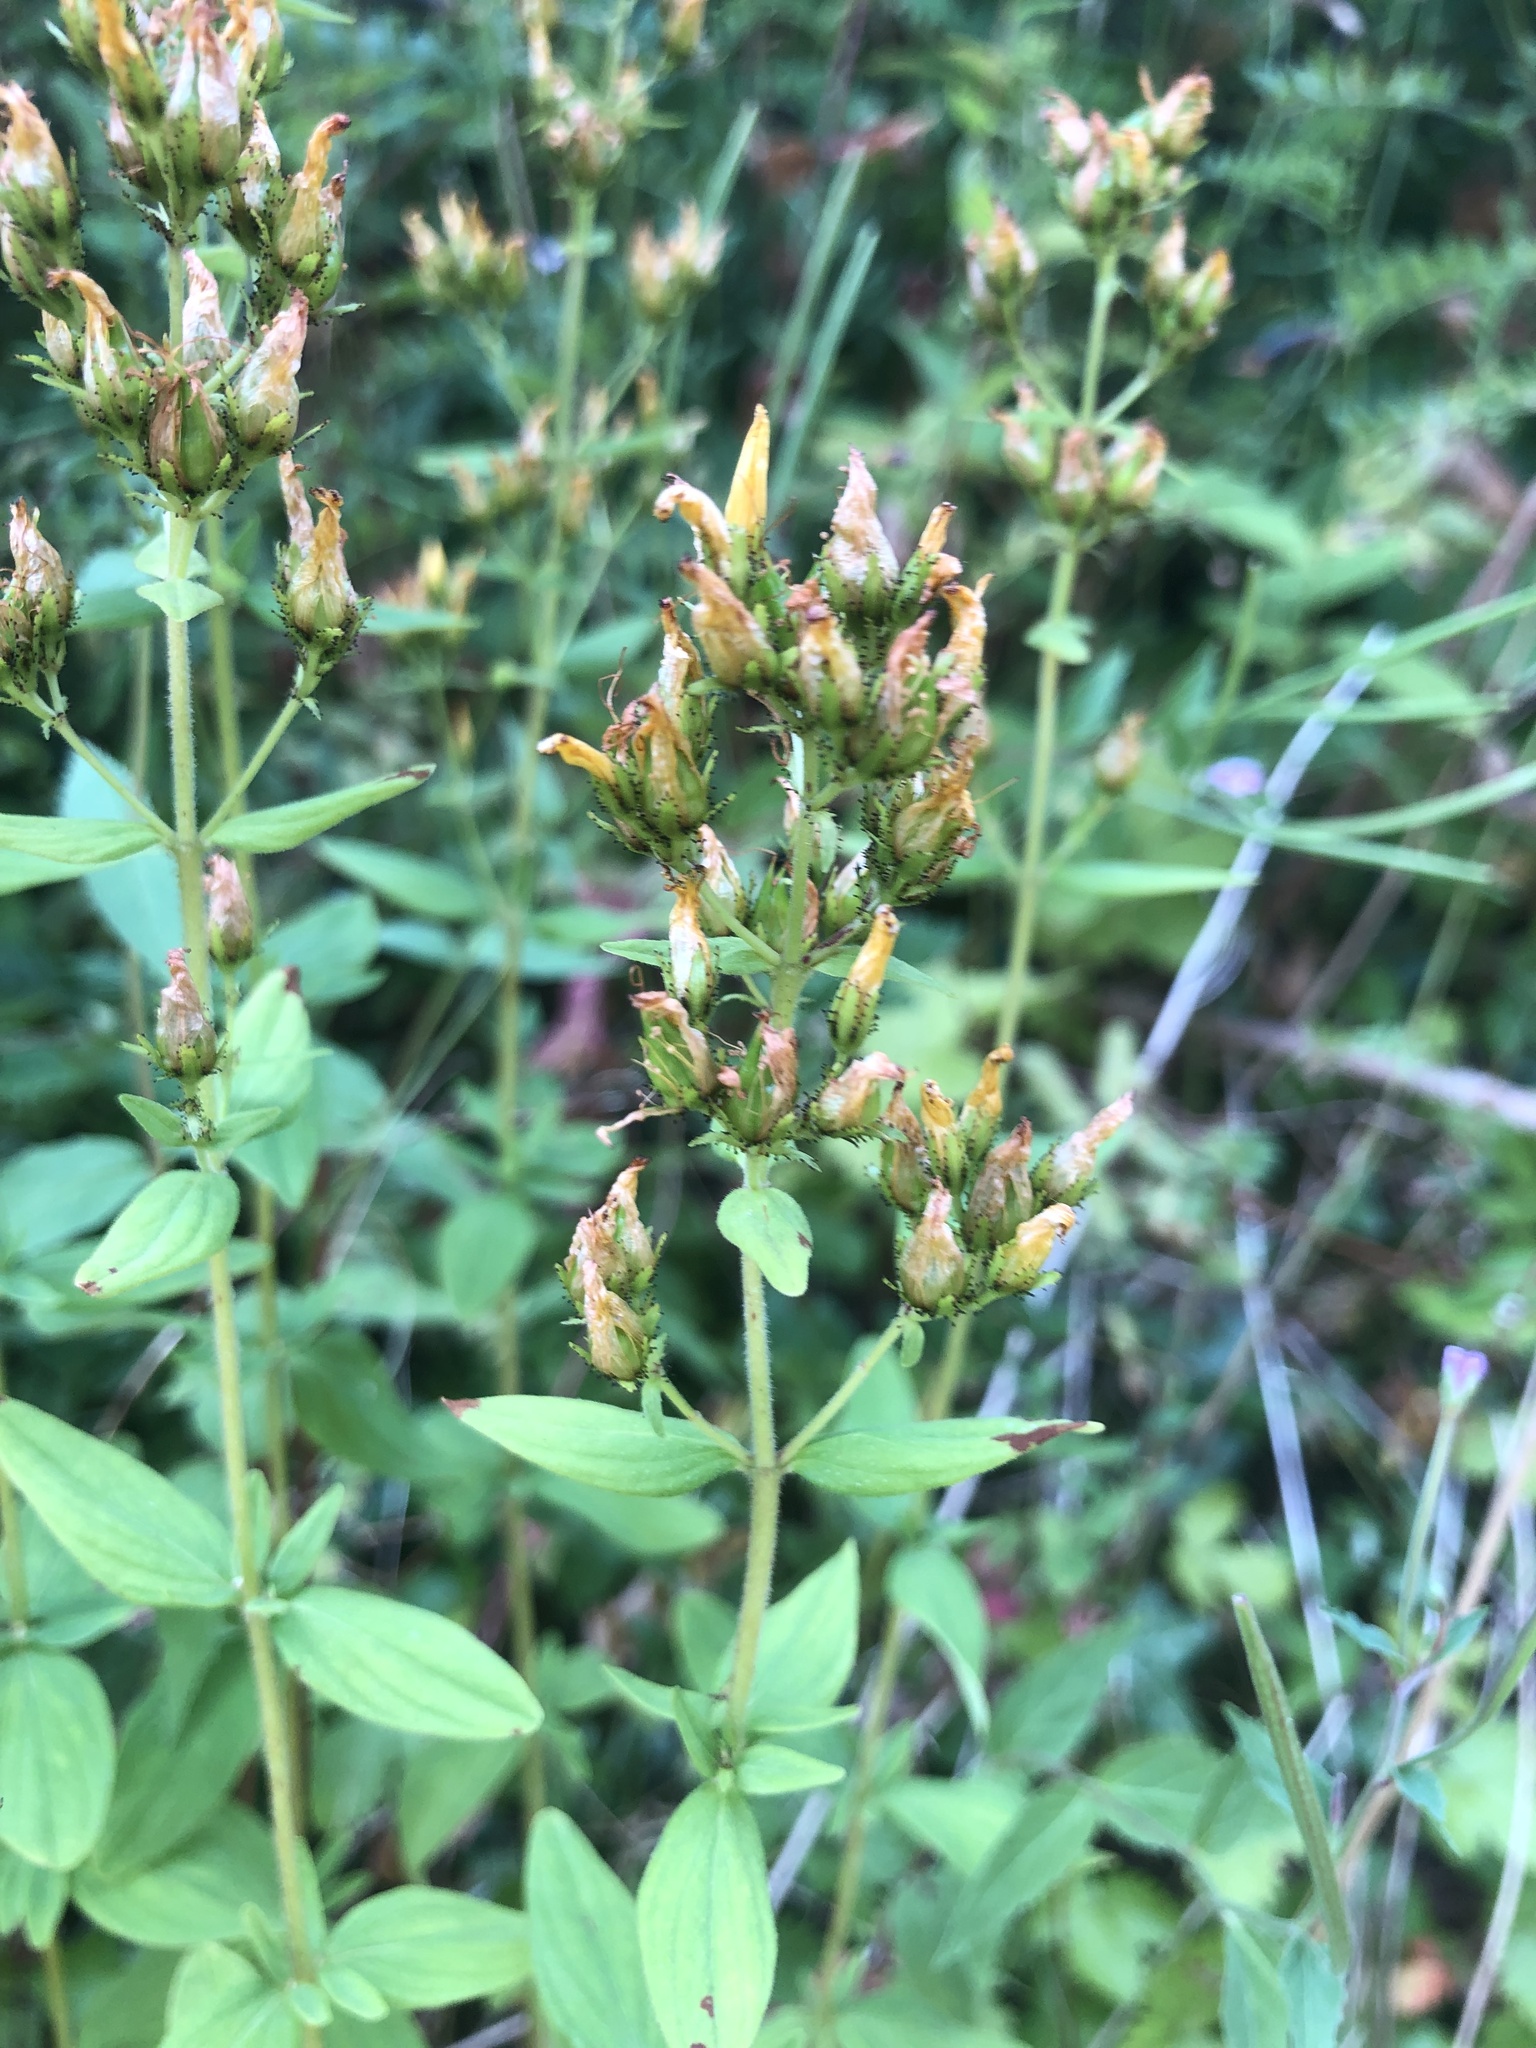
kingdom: Plantae
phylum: Tracheophyta
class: Magnoliopsida
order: Malpighiales
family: Hypericaceae
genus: Hypericum
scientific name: Hypericum hirsutum
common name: Hairy st. john's-wort
